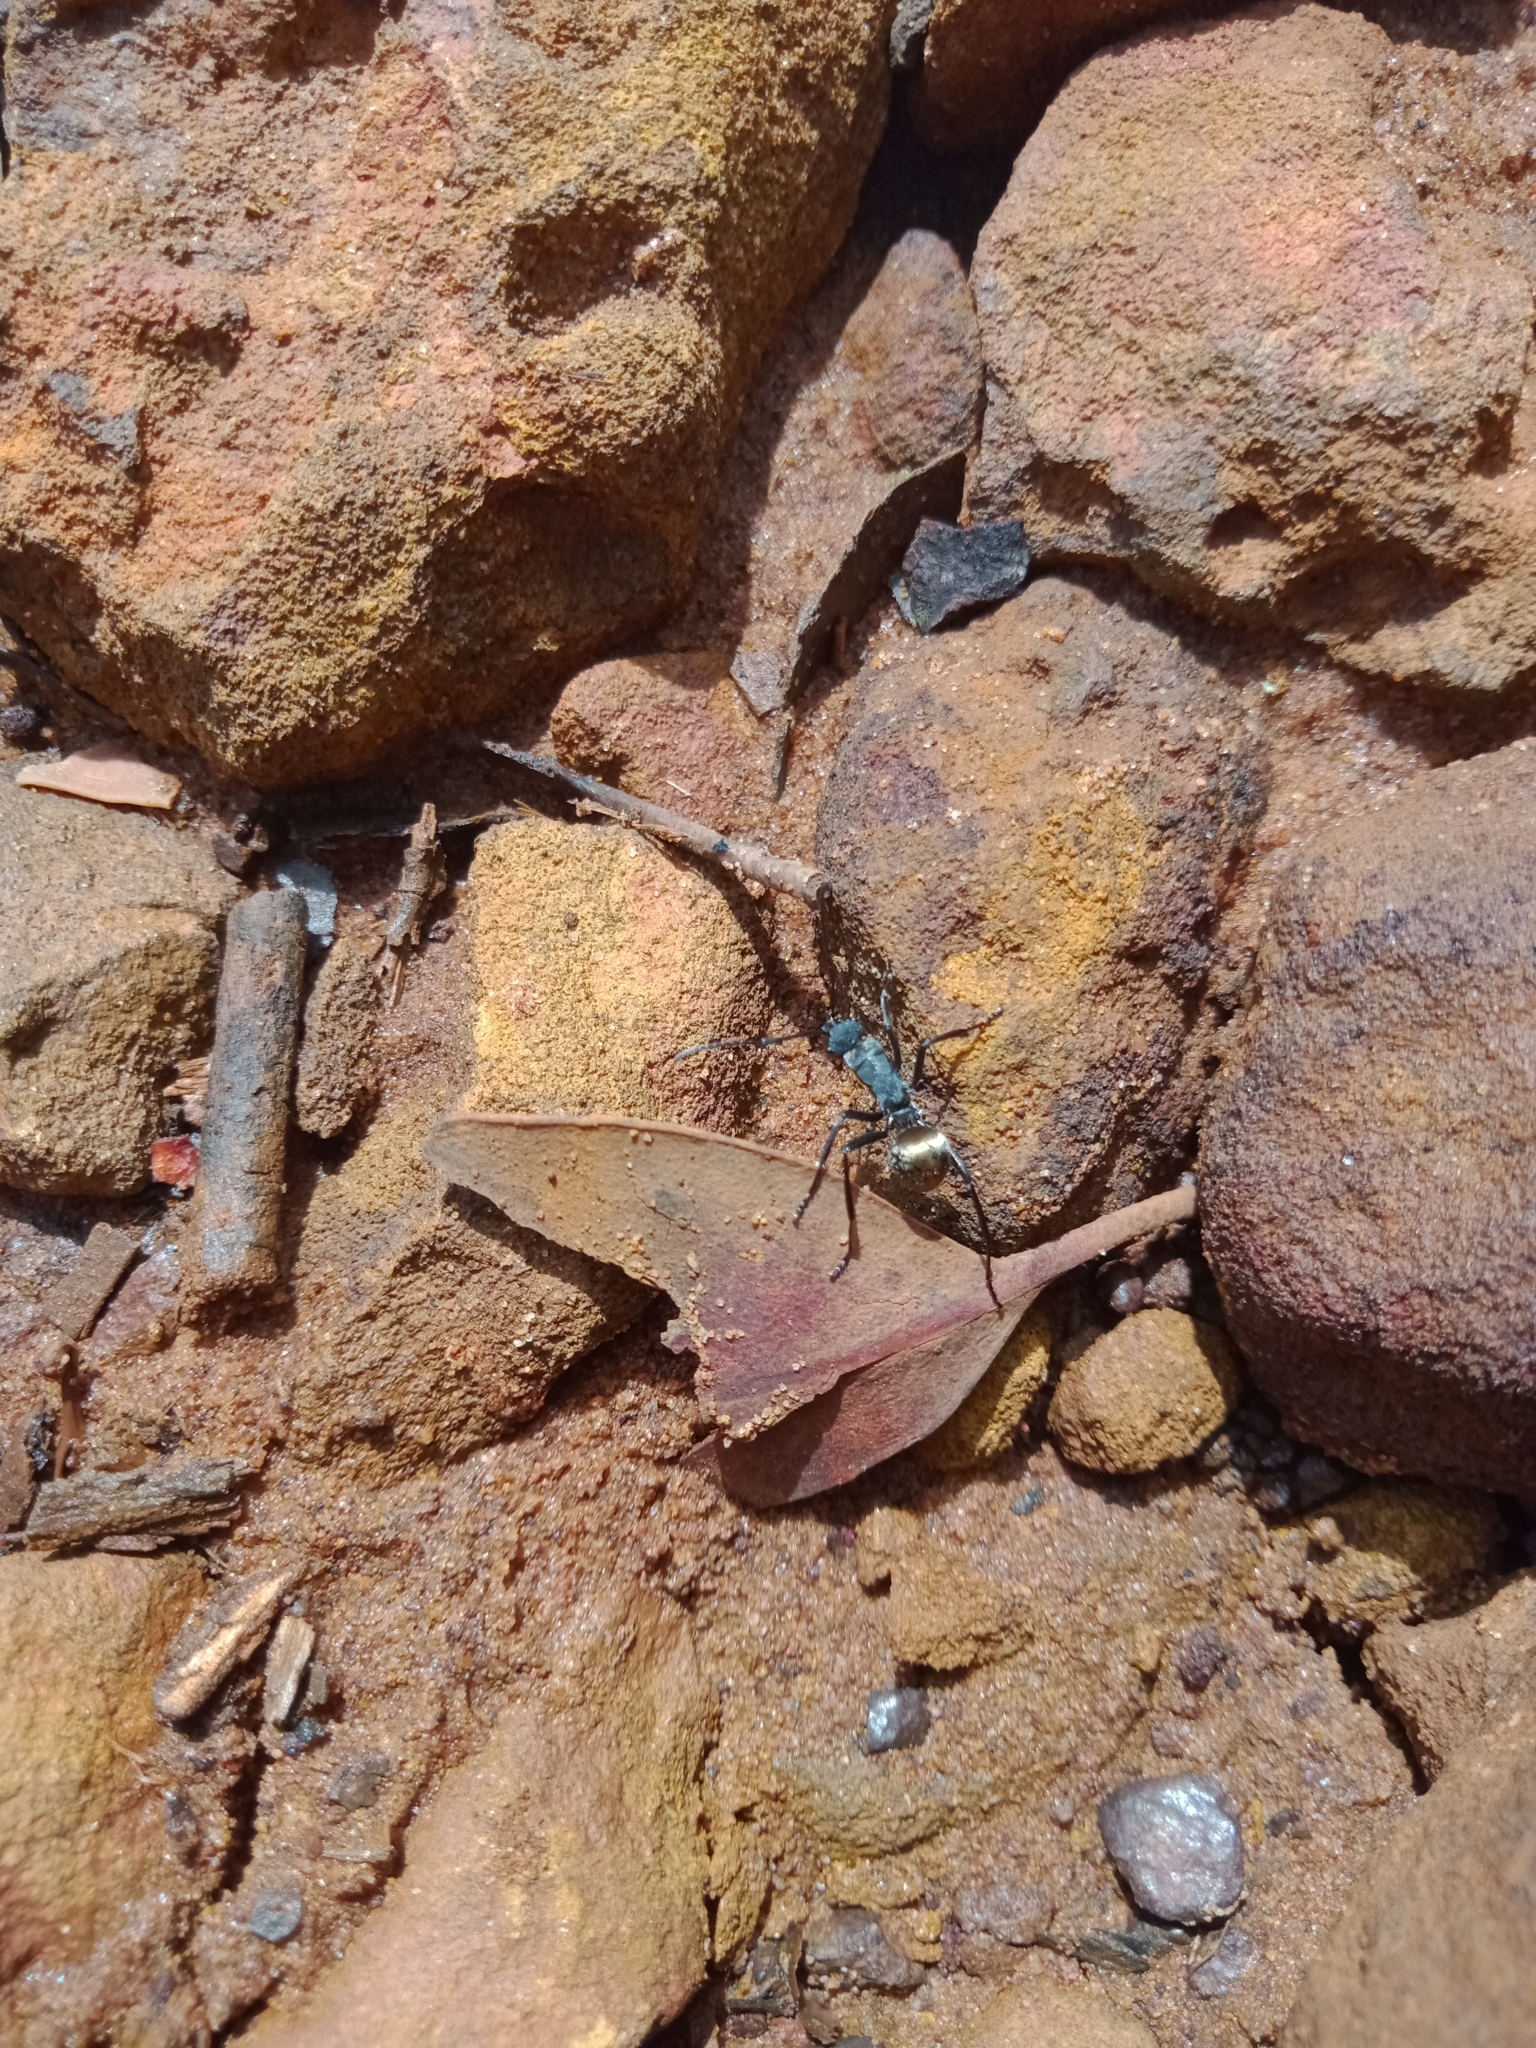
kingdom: Animalia
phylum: Arthropoda
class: Insecta
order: Hymenoptera
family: Formicidae
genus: Polyrhachis
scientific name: Polyrhachis ammon
